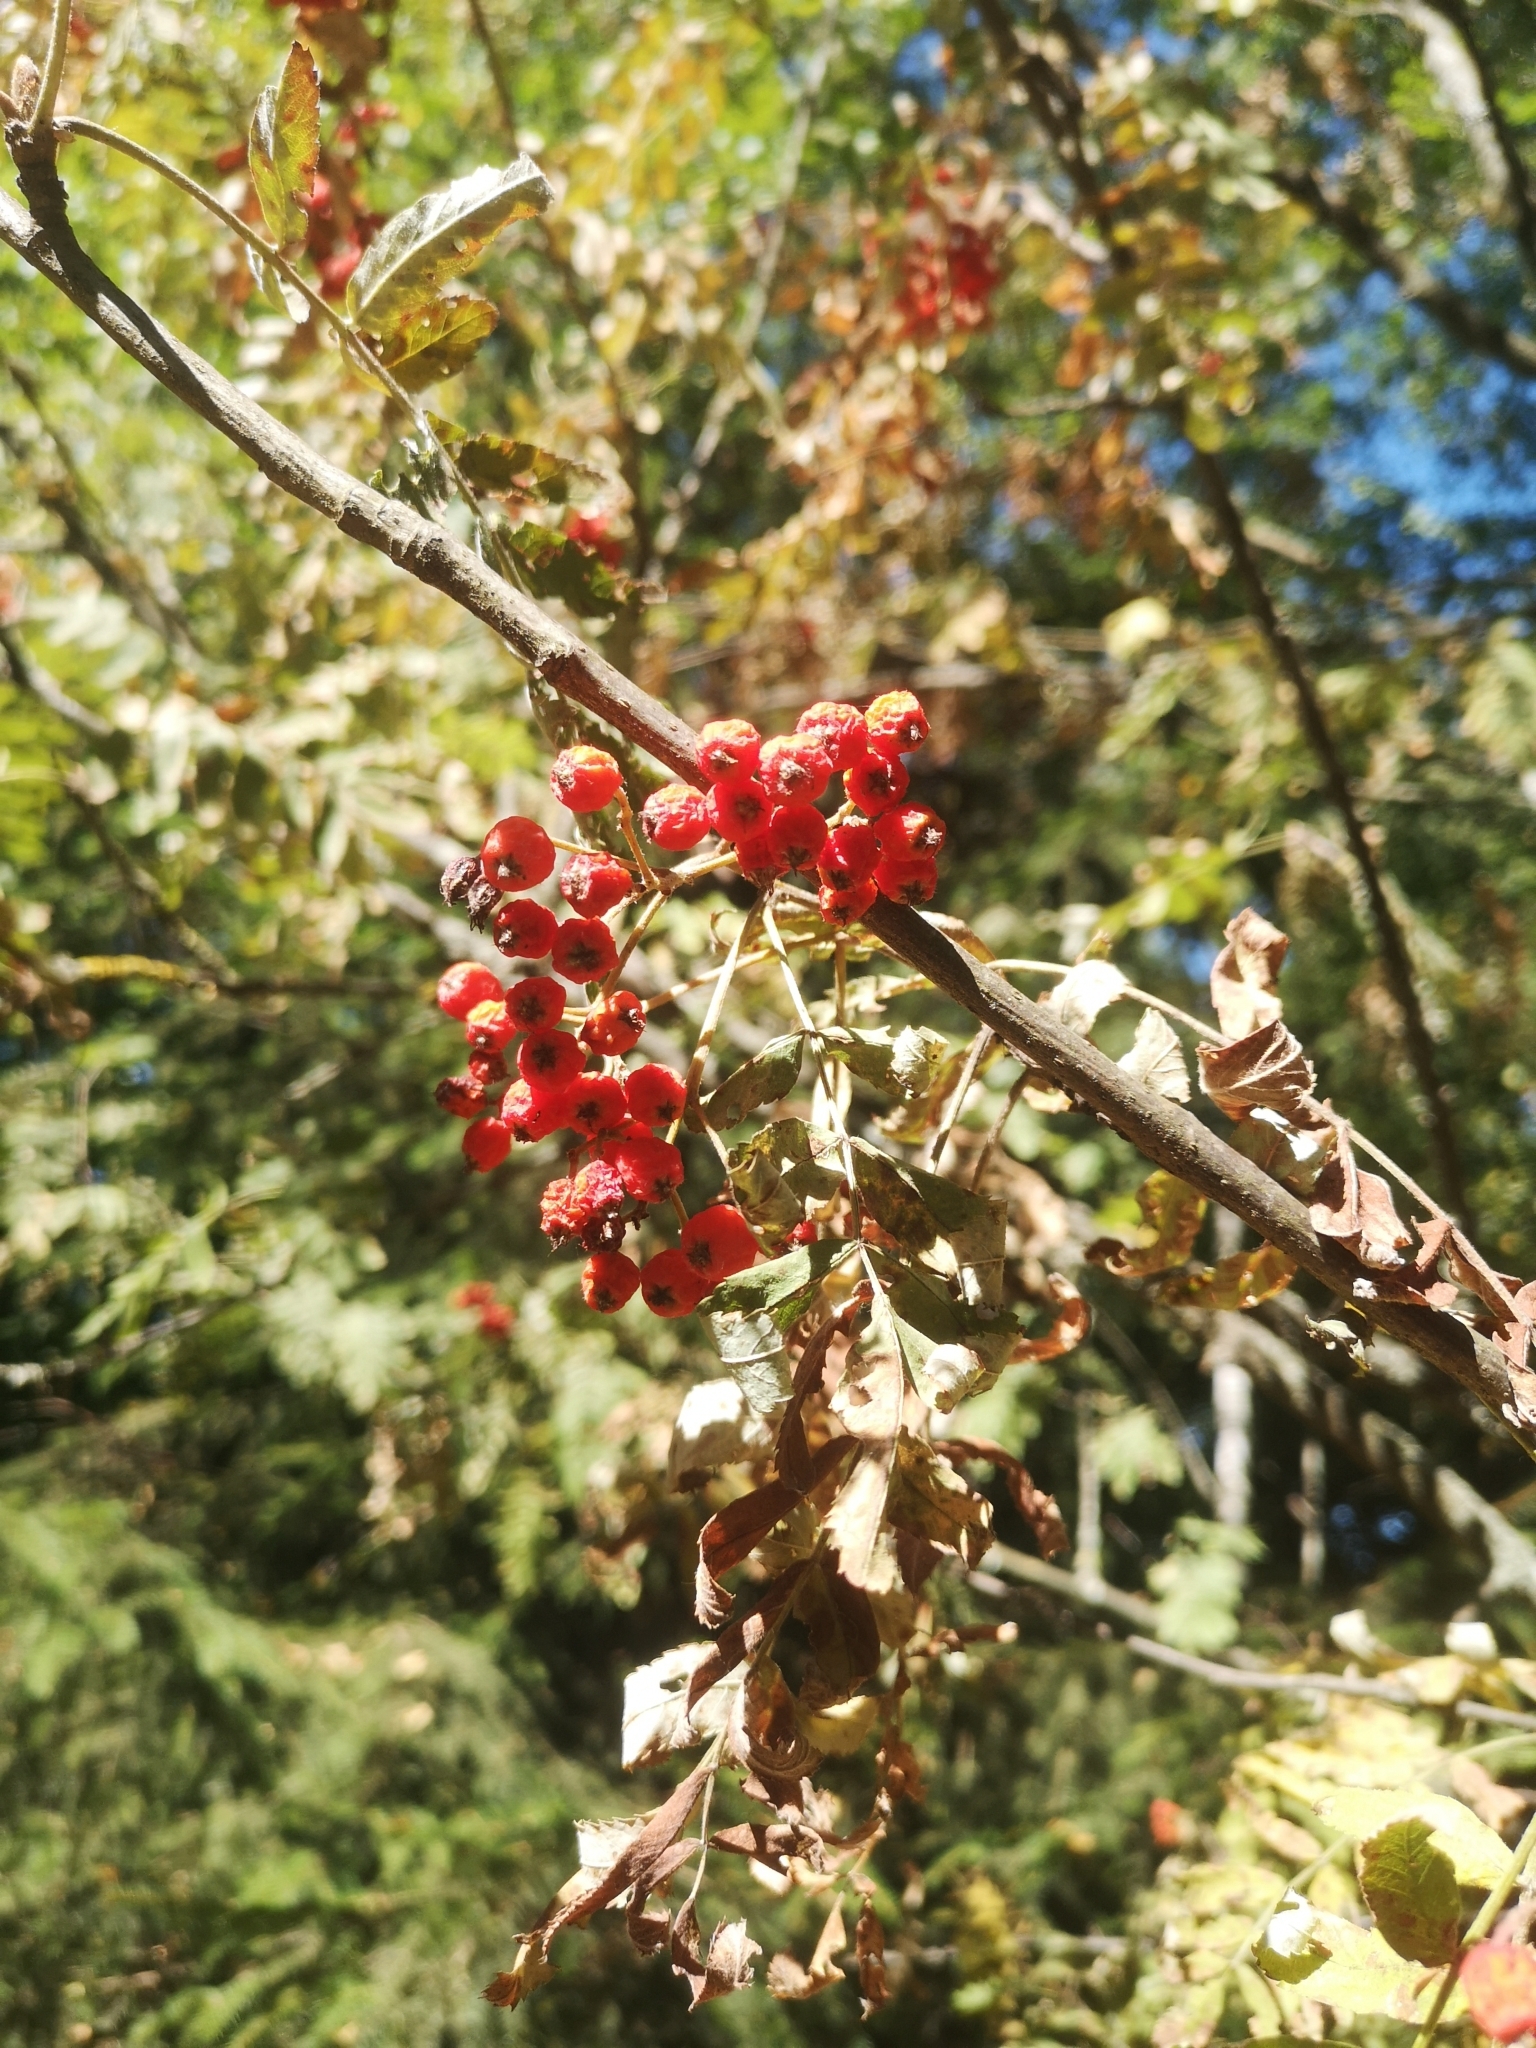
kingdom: Plantae
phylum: Tracheophyta
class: Magnoliopsida
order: Rosales
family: Rosaceae
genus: Sorbus
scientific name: Sorbus aucuparia
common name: Rowan
